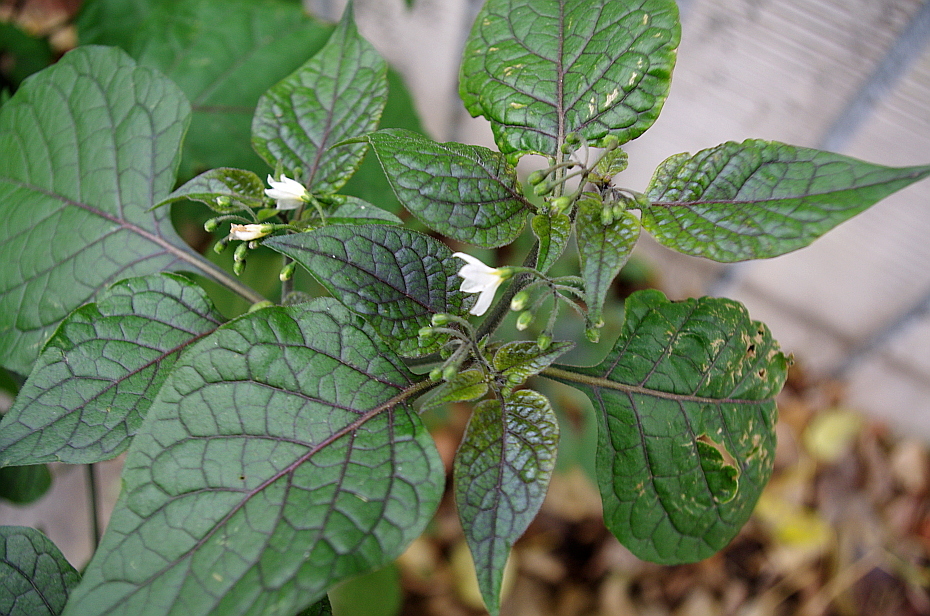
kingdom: Plantae
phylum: Tracheophyta
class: Magnoliopsida
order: Solanales
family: Solanaceae
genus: Solanum
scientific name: Solanum nigrum
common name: Black nightshade
